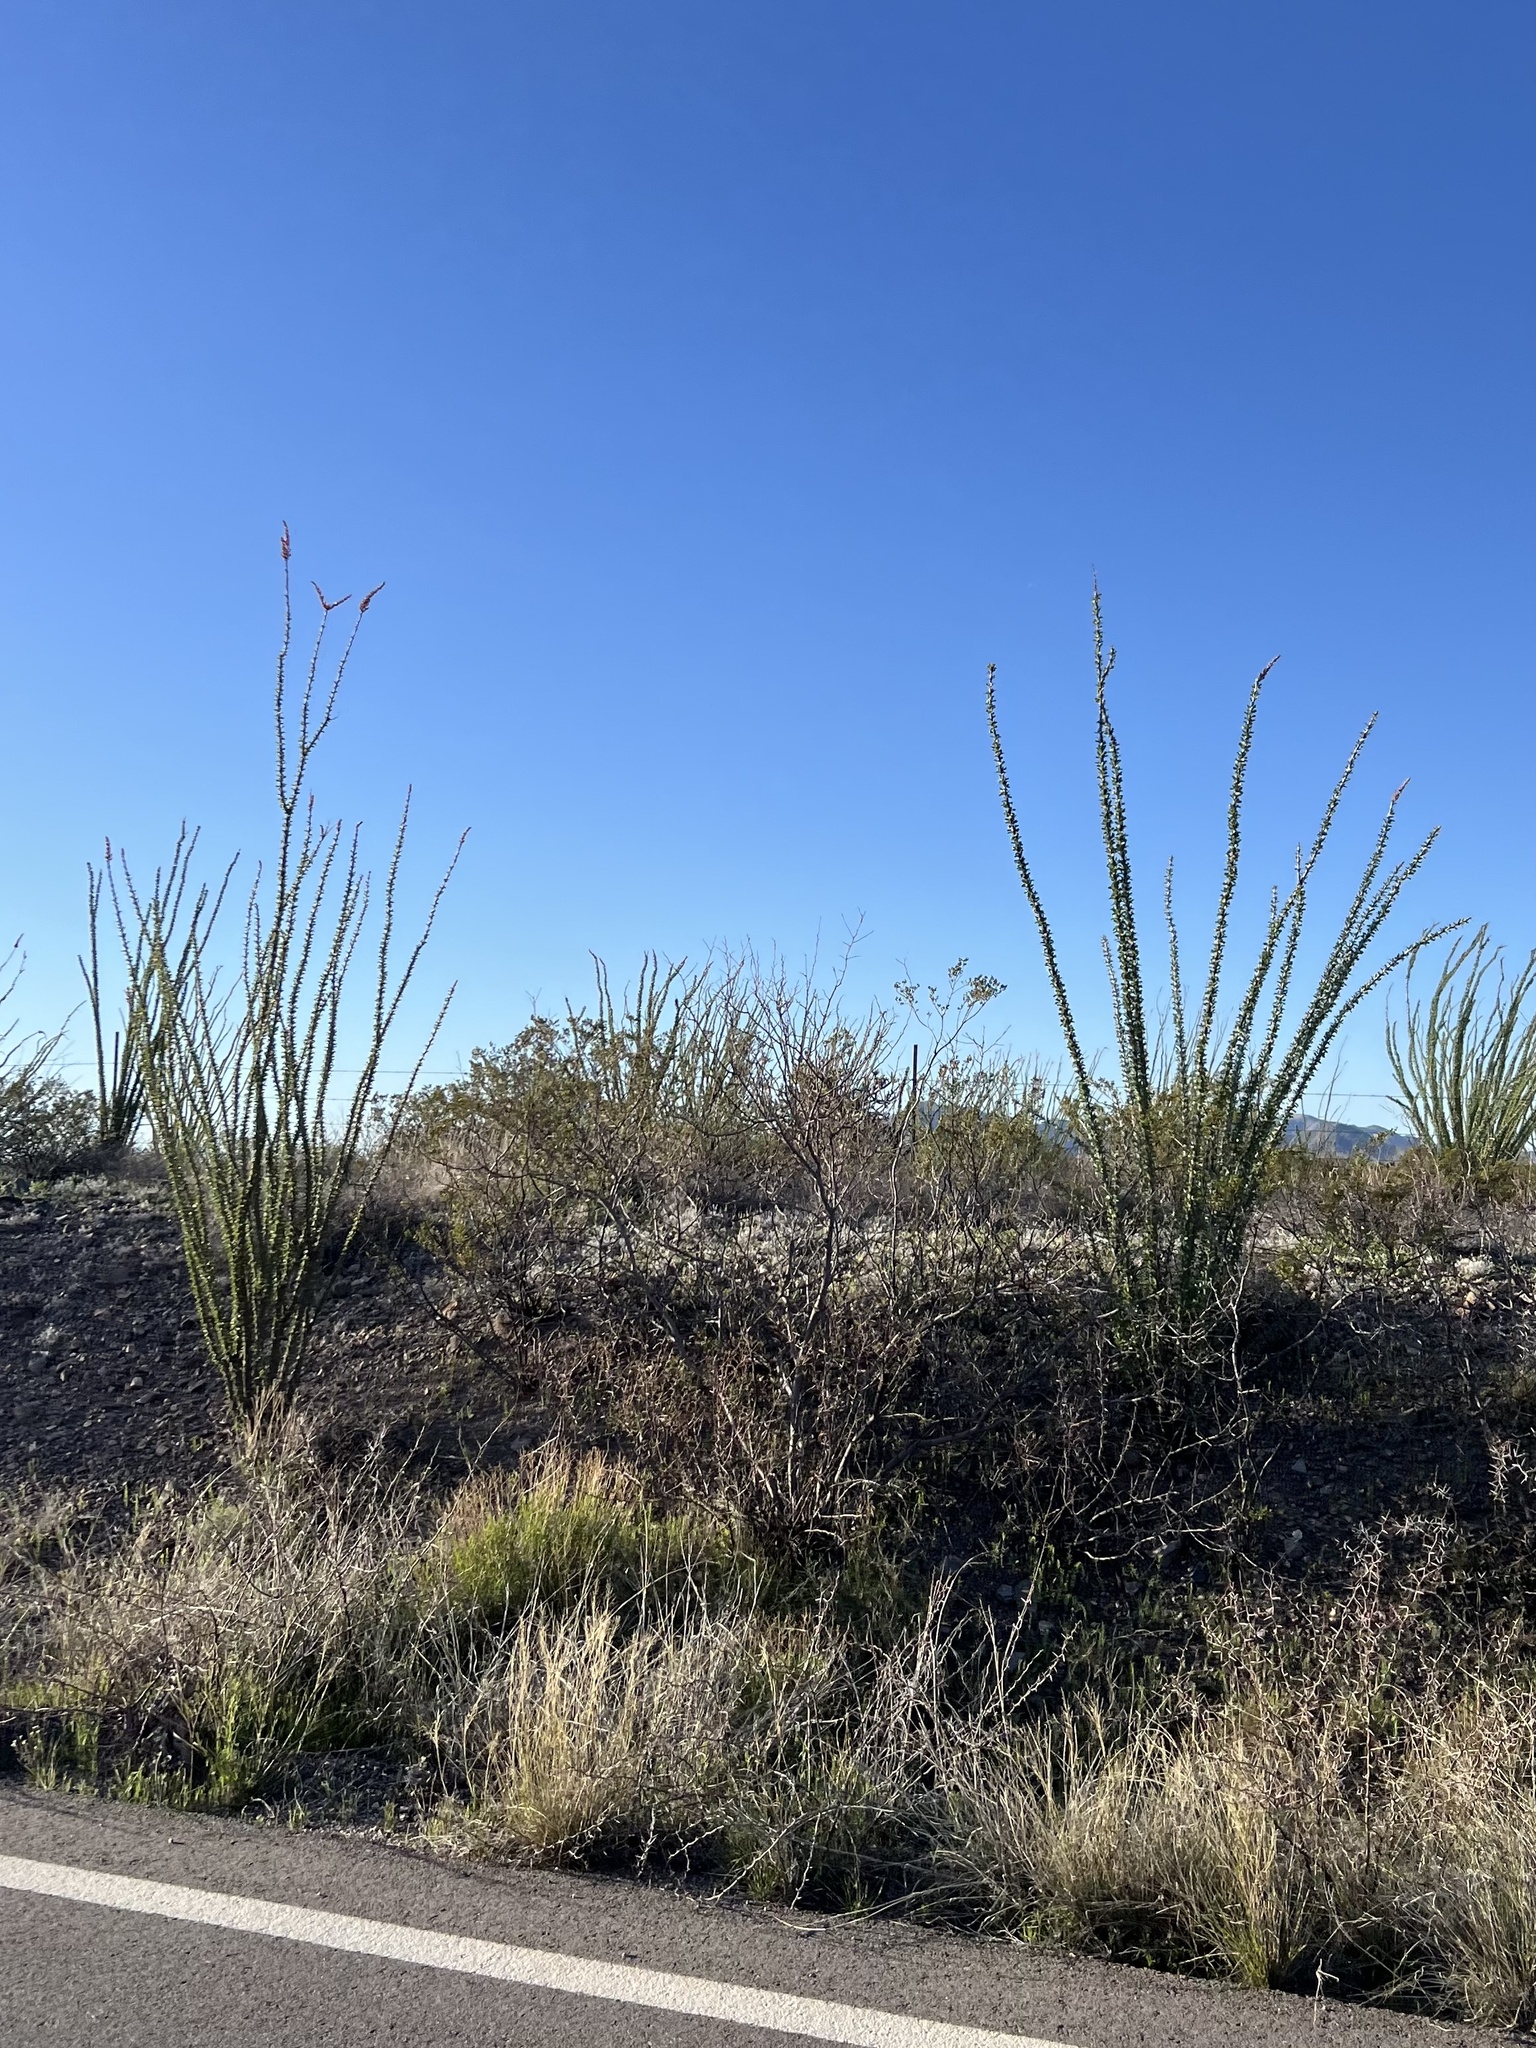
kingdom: Plantae
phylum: Tracheophyta
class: Magnoliopsida
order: Ericales
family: Fouquieriaceae
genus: Fouquieria
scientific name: Fouquieria splendens
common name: Vine-cactus
